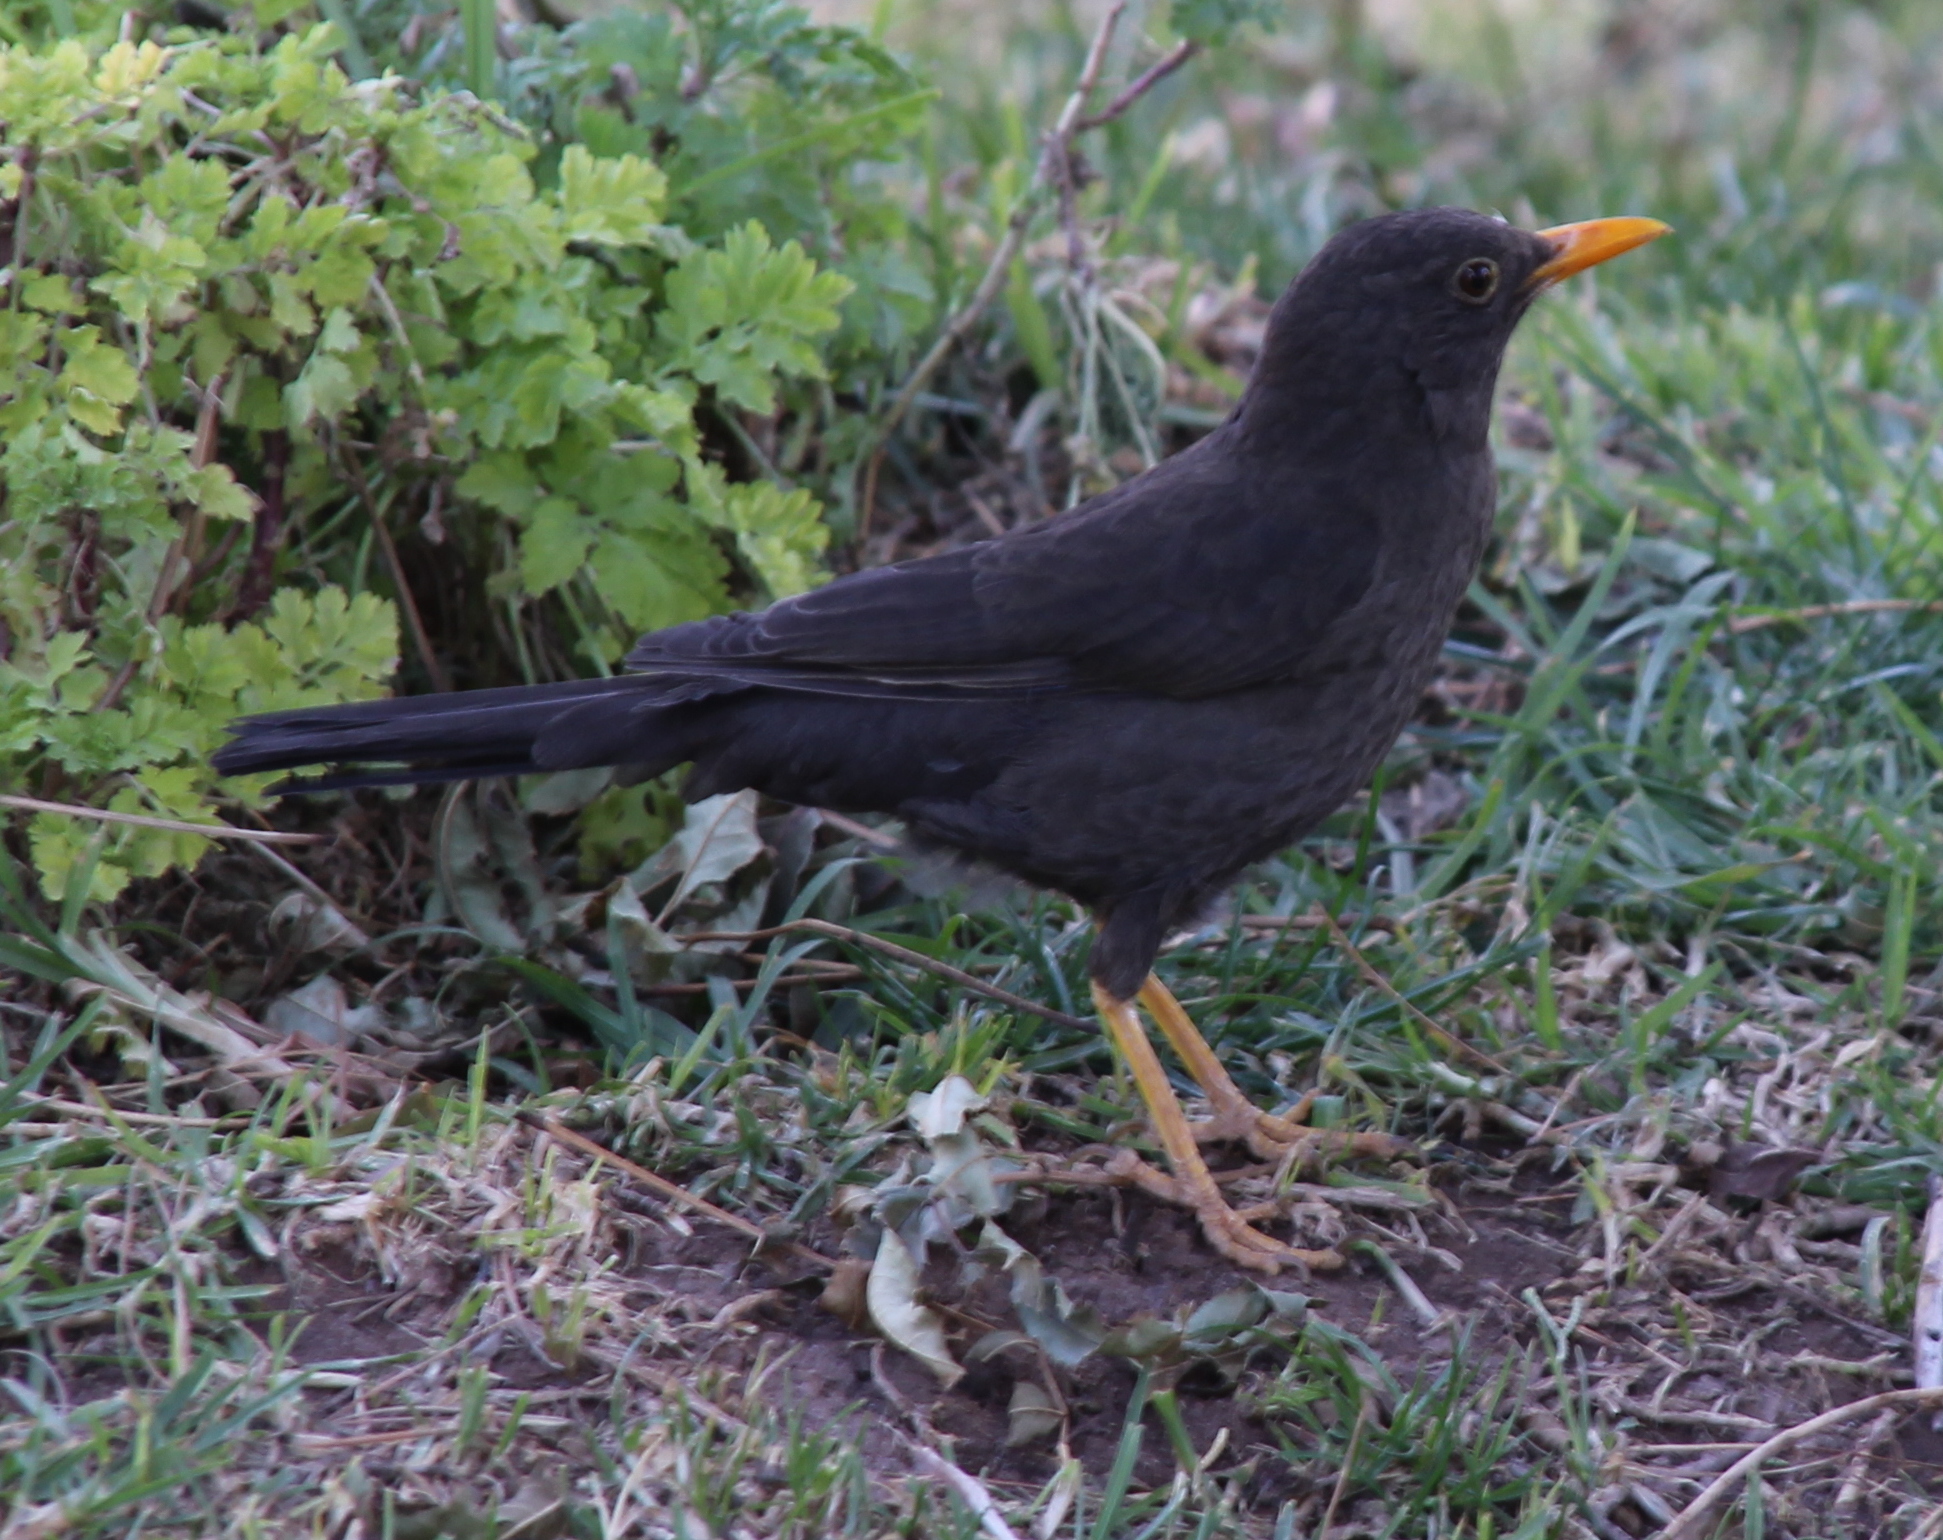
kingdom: Animalia
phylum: Chordata
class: Aves
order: Passeriformes
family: Turdidae
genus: Turdus
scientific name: Turdus chiguanco
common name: Chiguanco thrush
